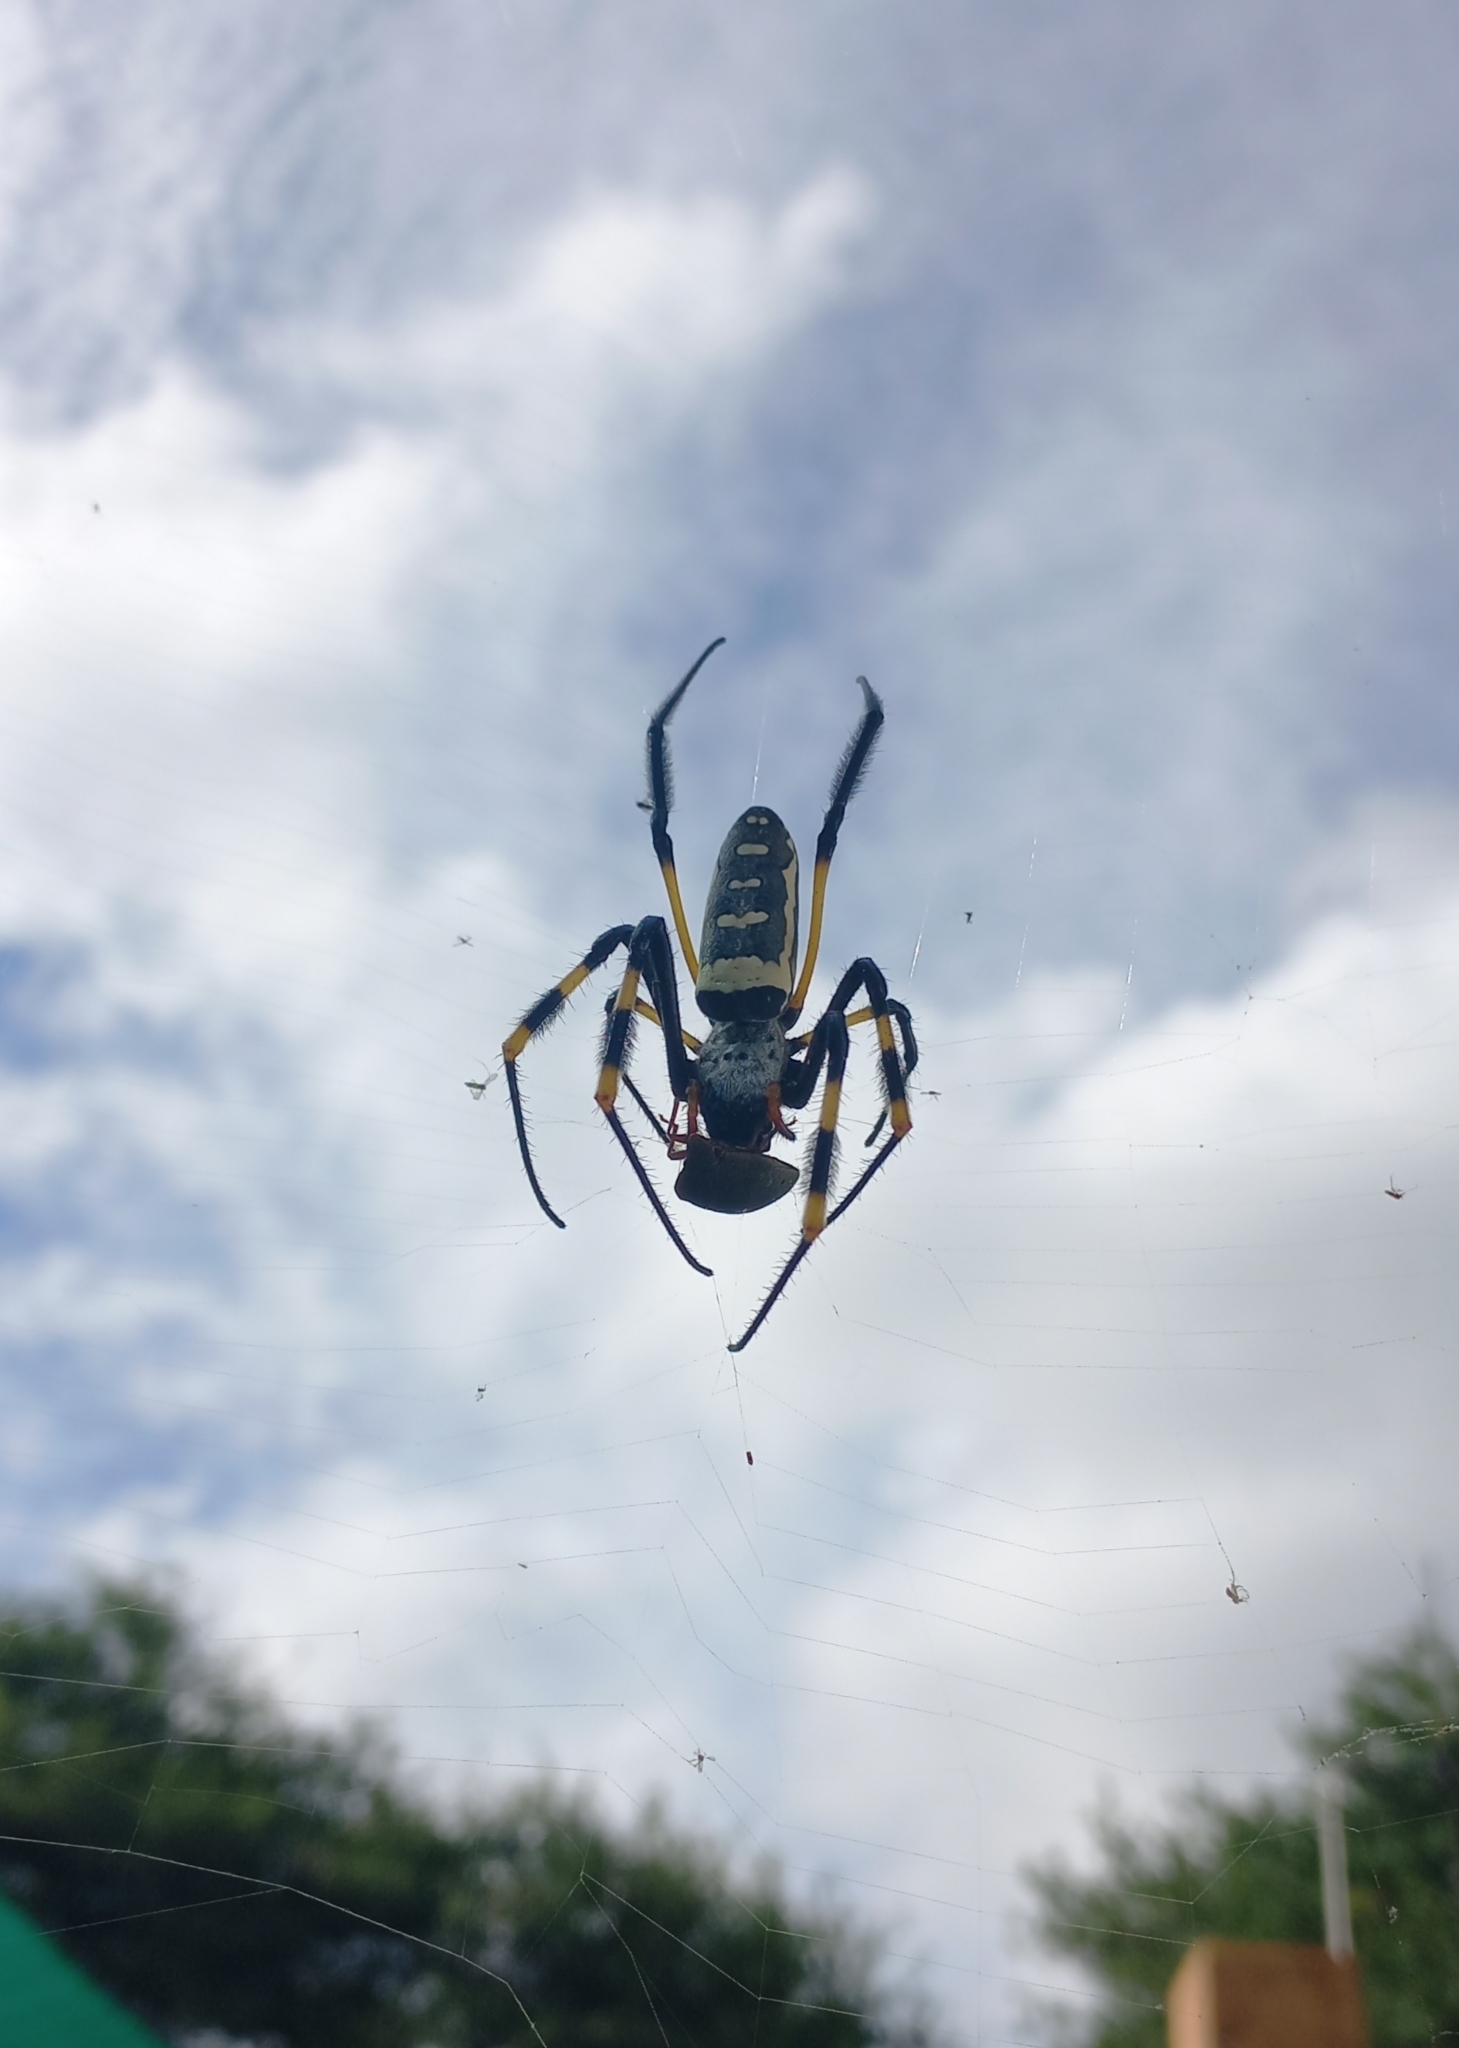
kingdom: Animalia
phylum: Arthropoda
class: Arachnida
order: Araneae
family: Araneidae
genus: Trichonephila
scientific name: Trichonephila senegalensis
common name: Banded golden orb weaver
